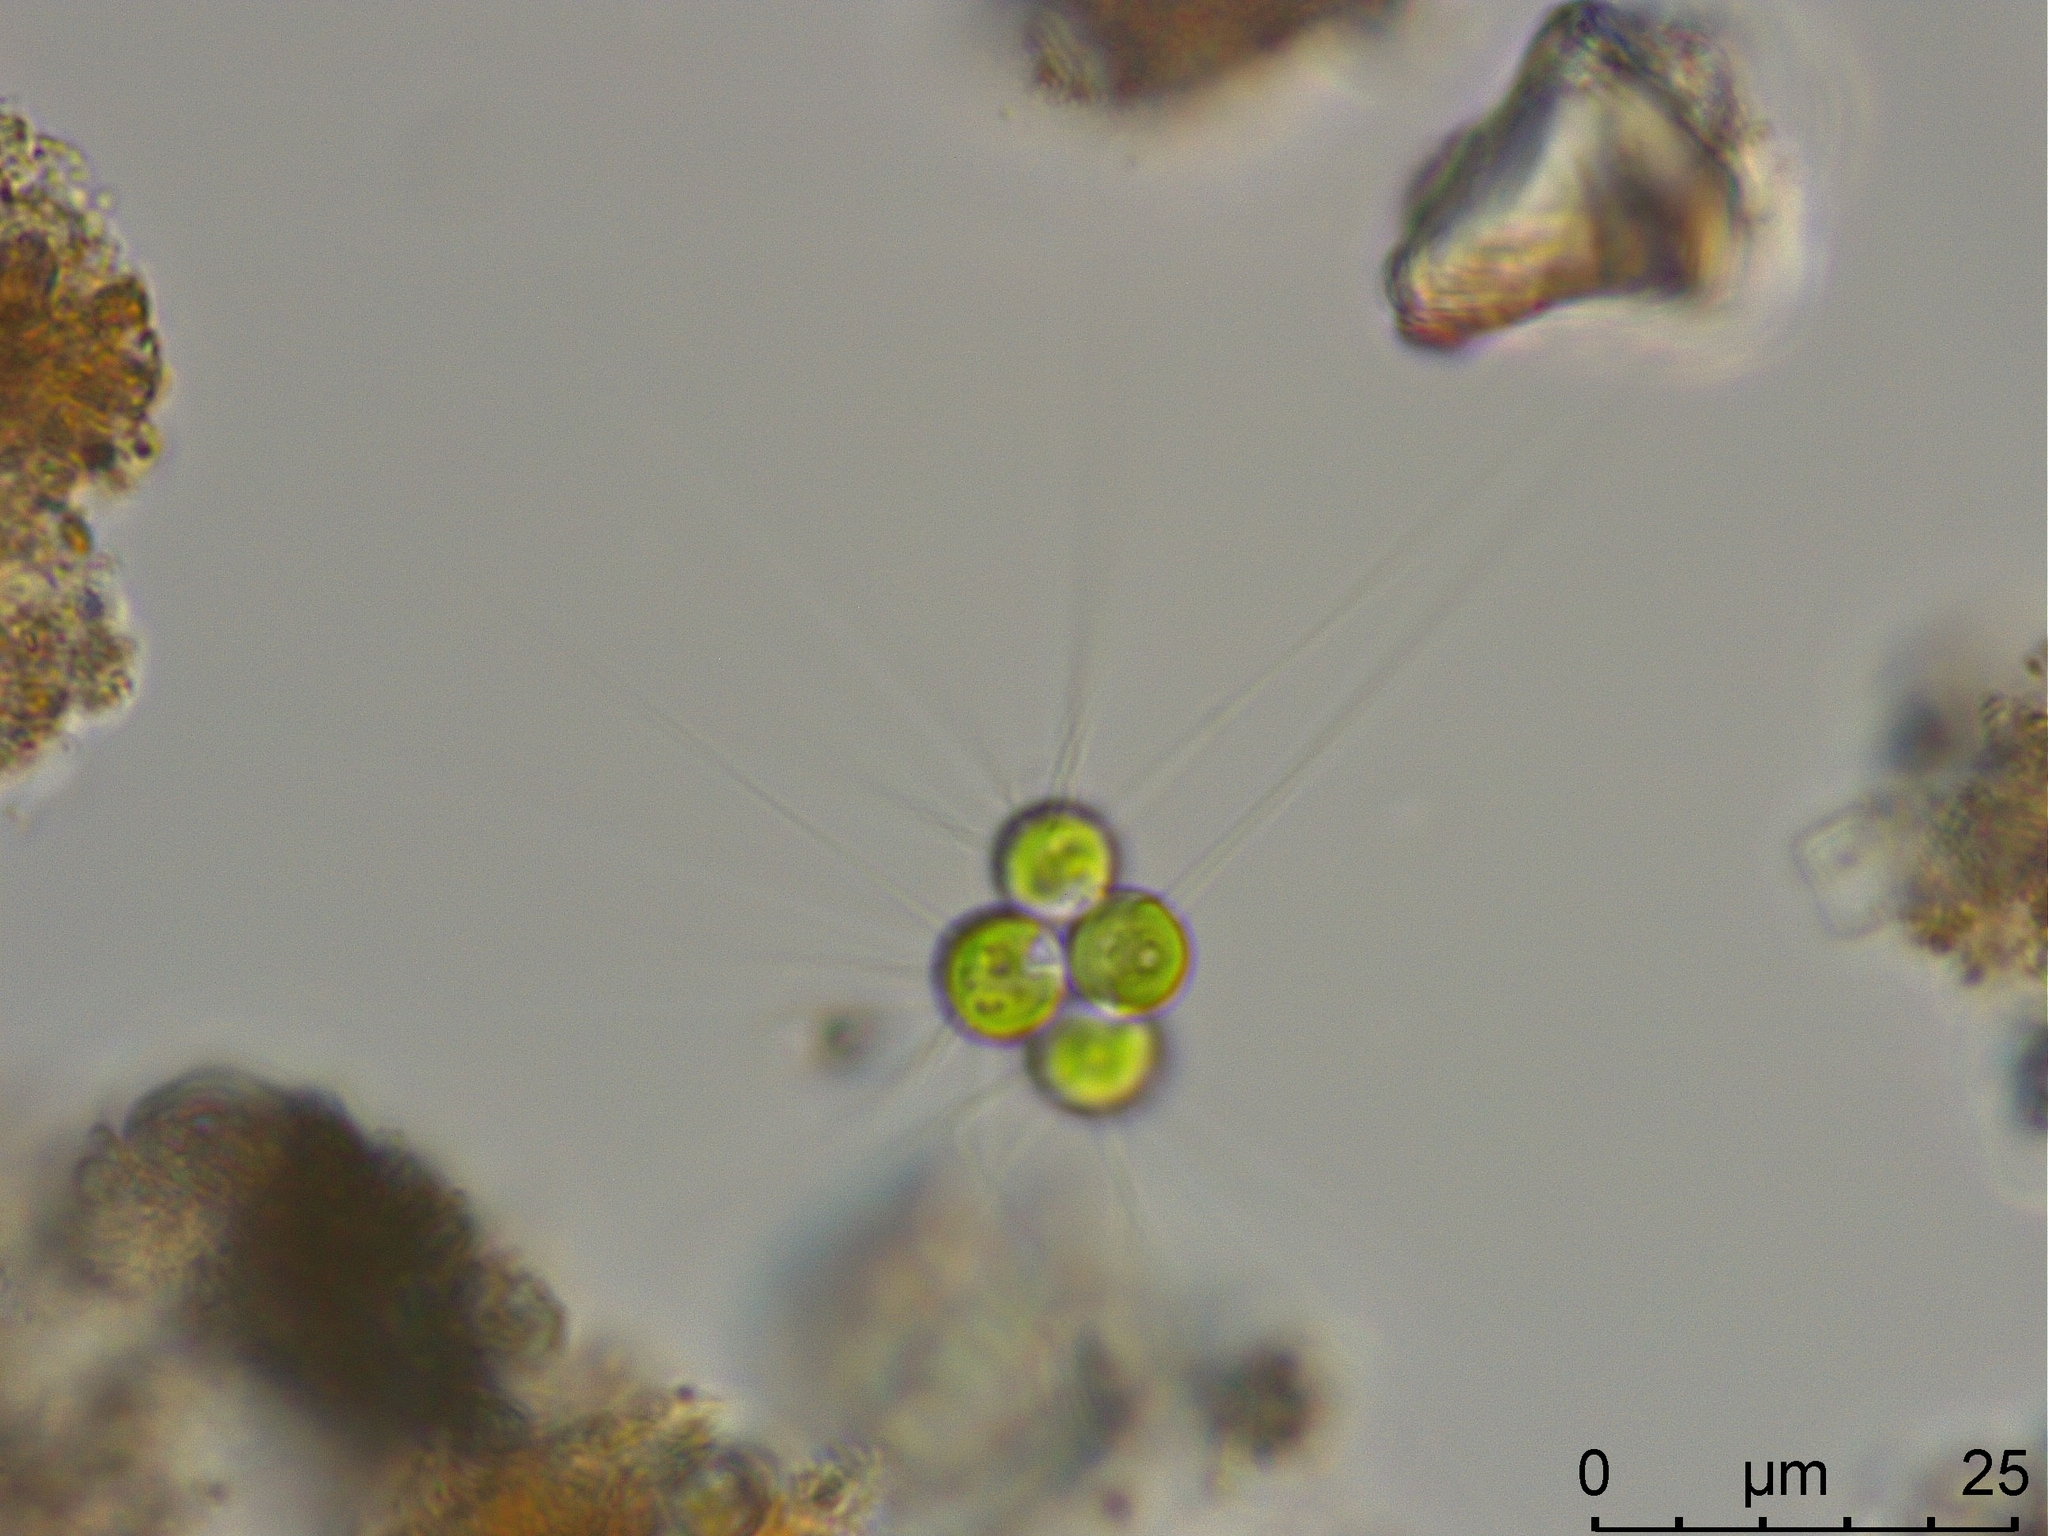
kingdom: Plantae
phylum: Chlorophyta
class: Trebouxiophyceae
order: Chlorellales
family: Chlorellaceae
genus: Micractinium
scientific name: Micractinium pusillum
